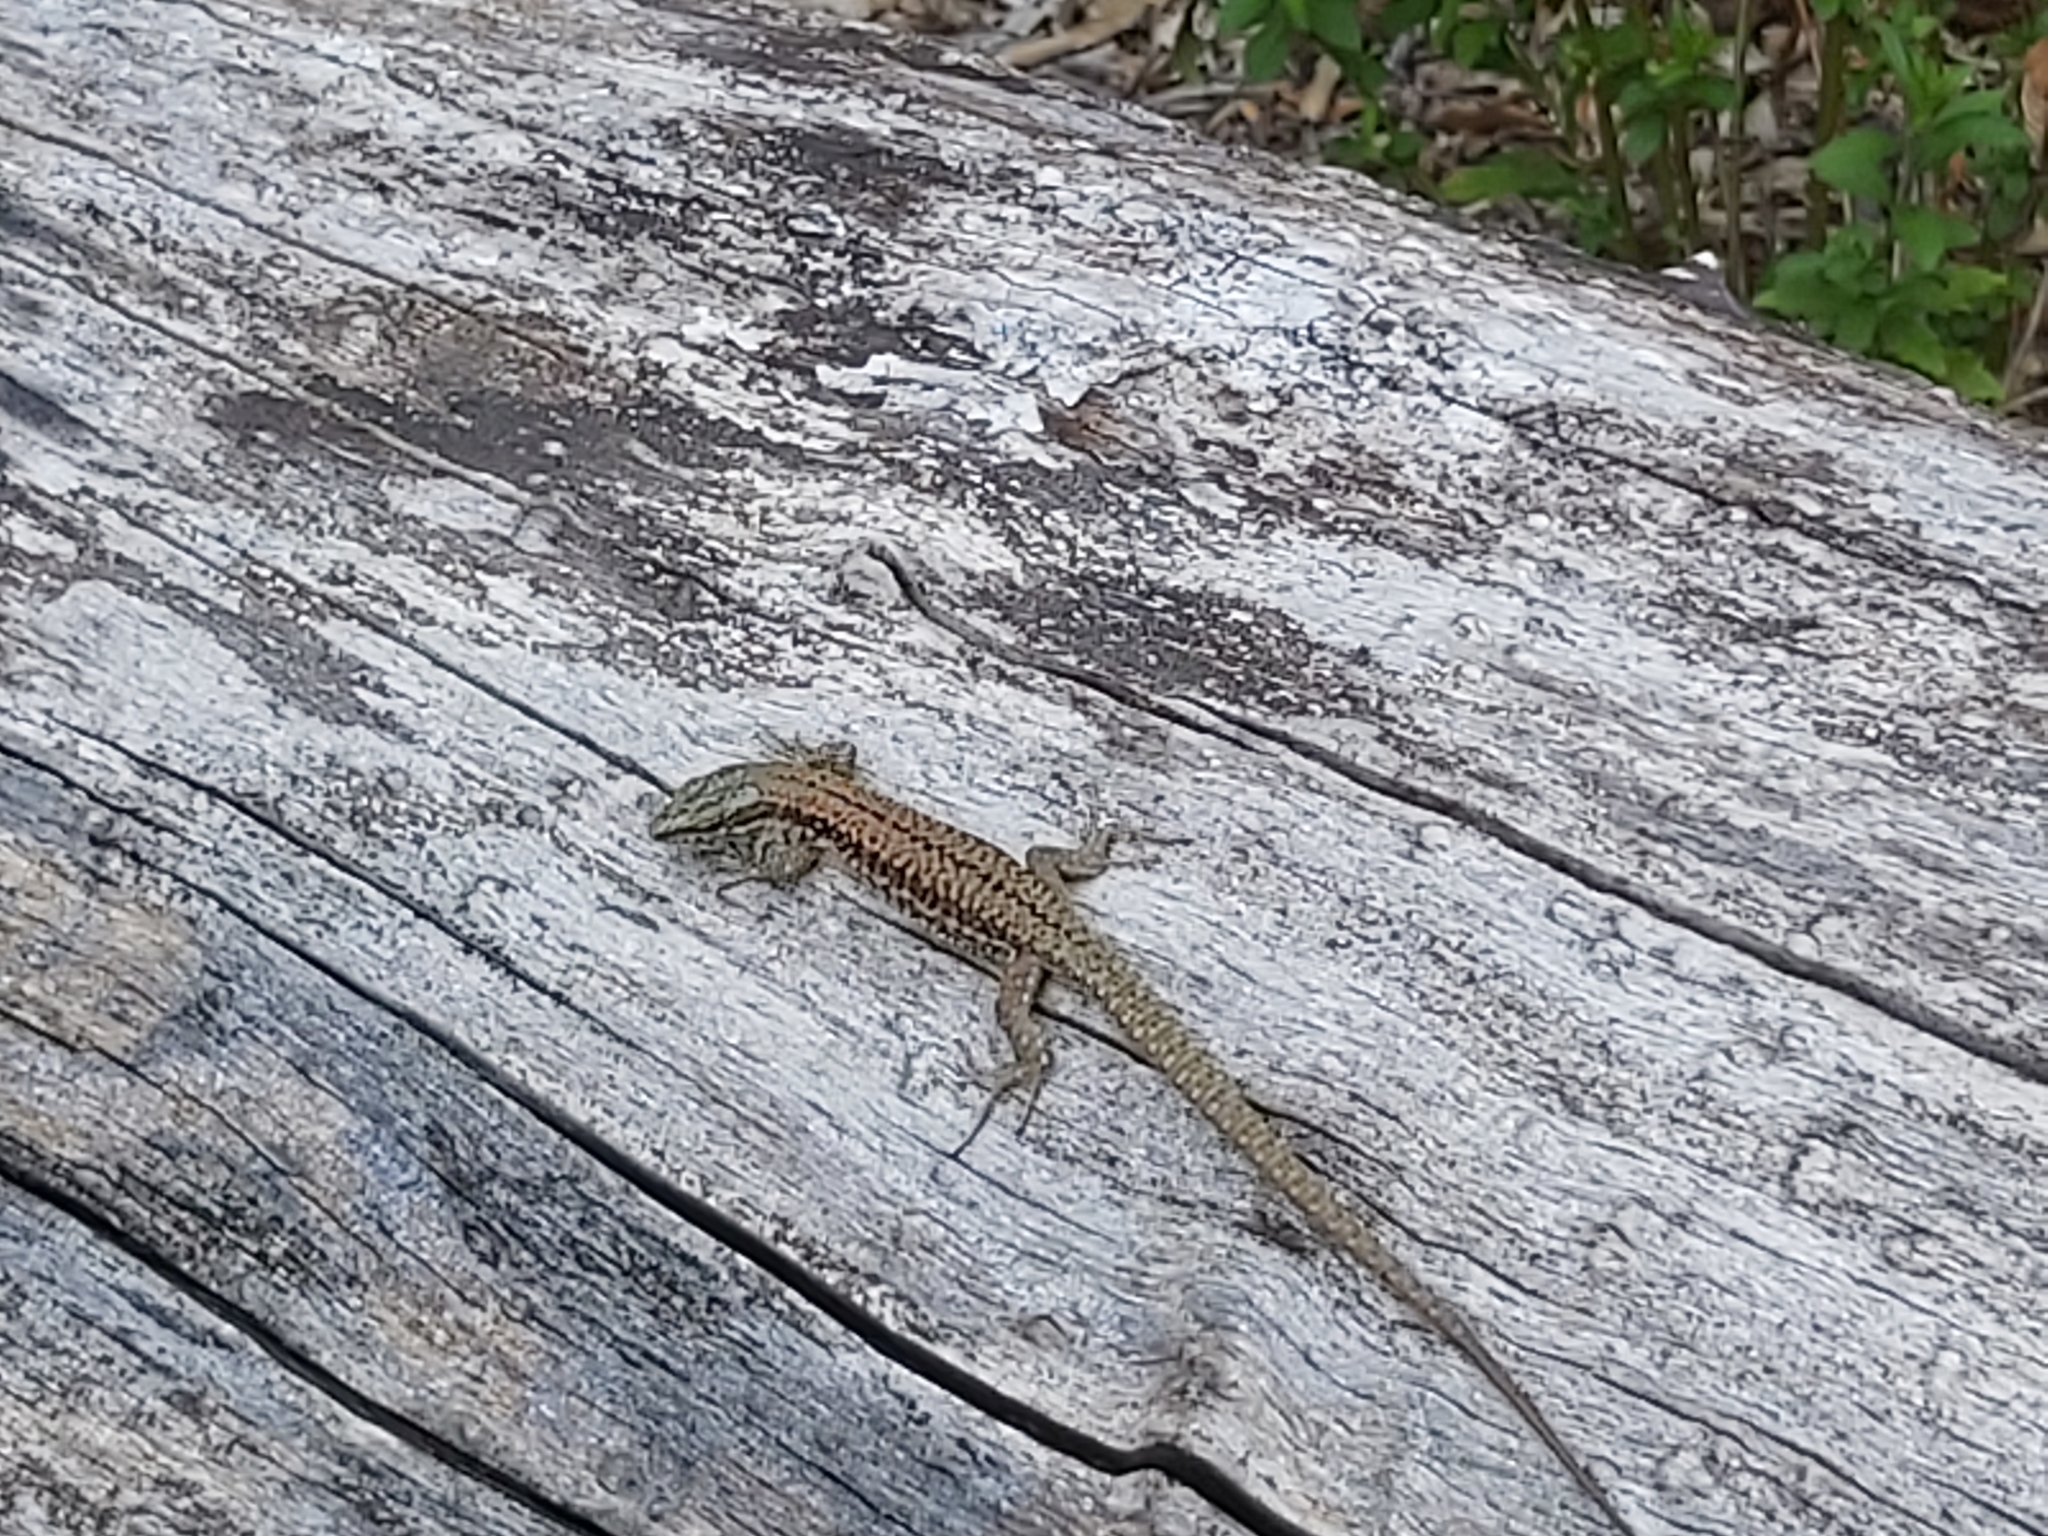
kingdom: Animalia
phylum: Chordata
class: Squamata
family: Lacertidae
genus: Podarcis
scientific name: Podarcis muralis
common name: Common wall lizard
